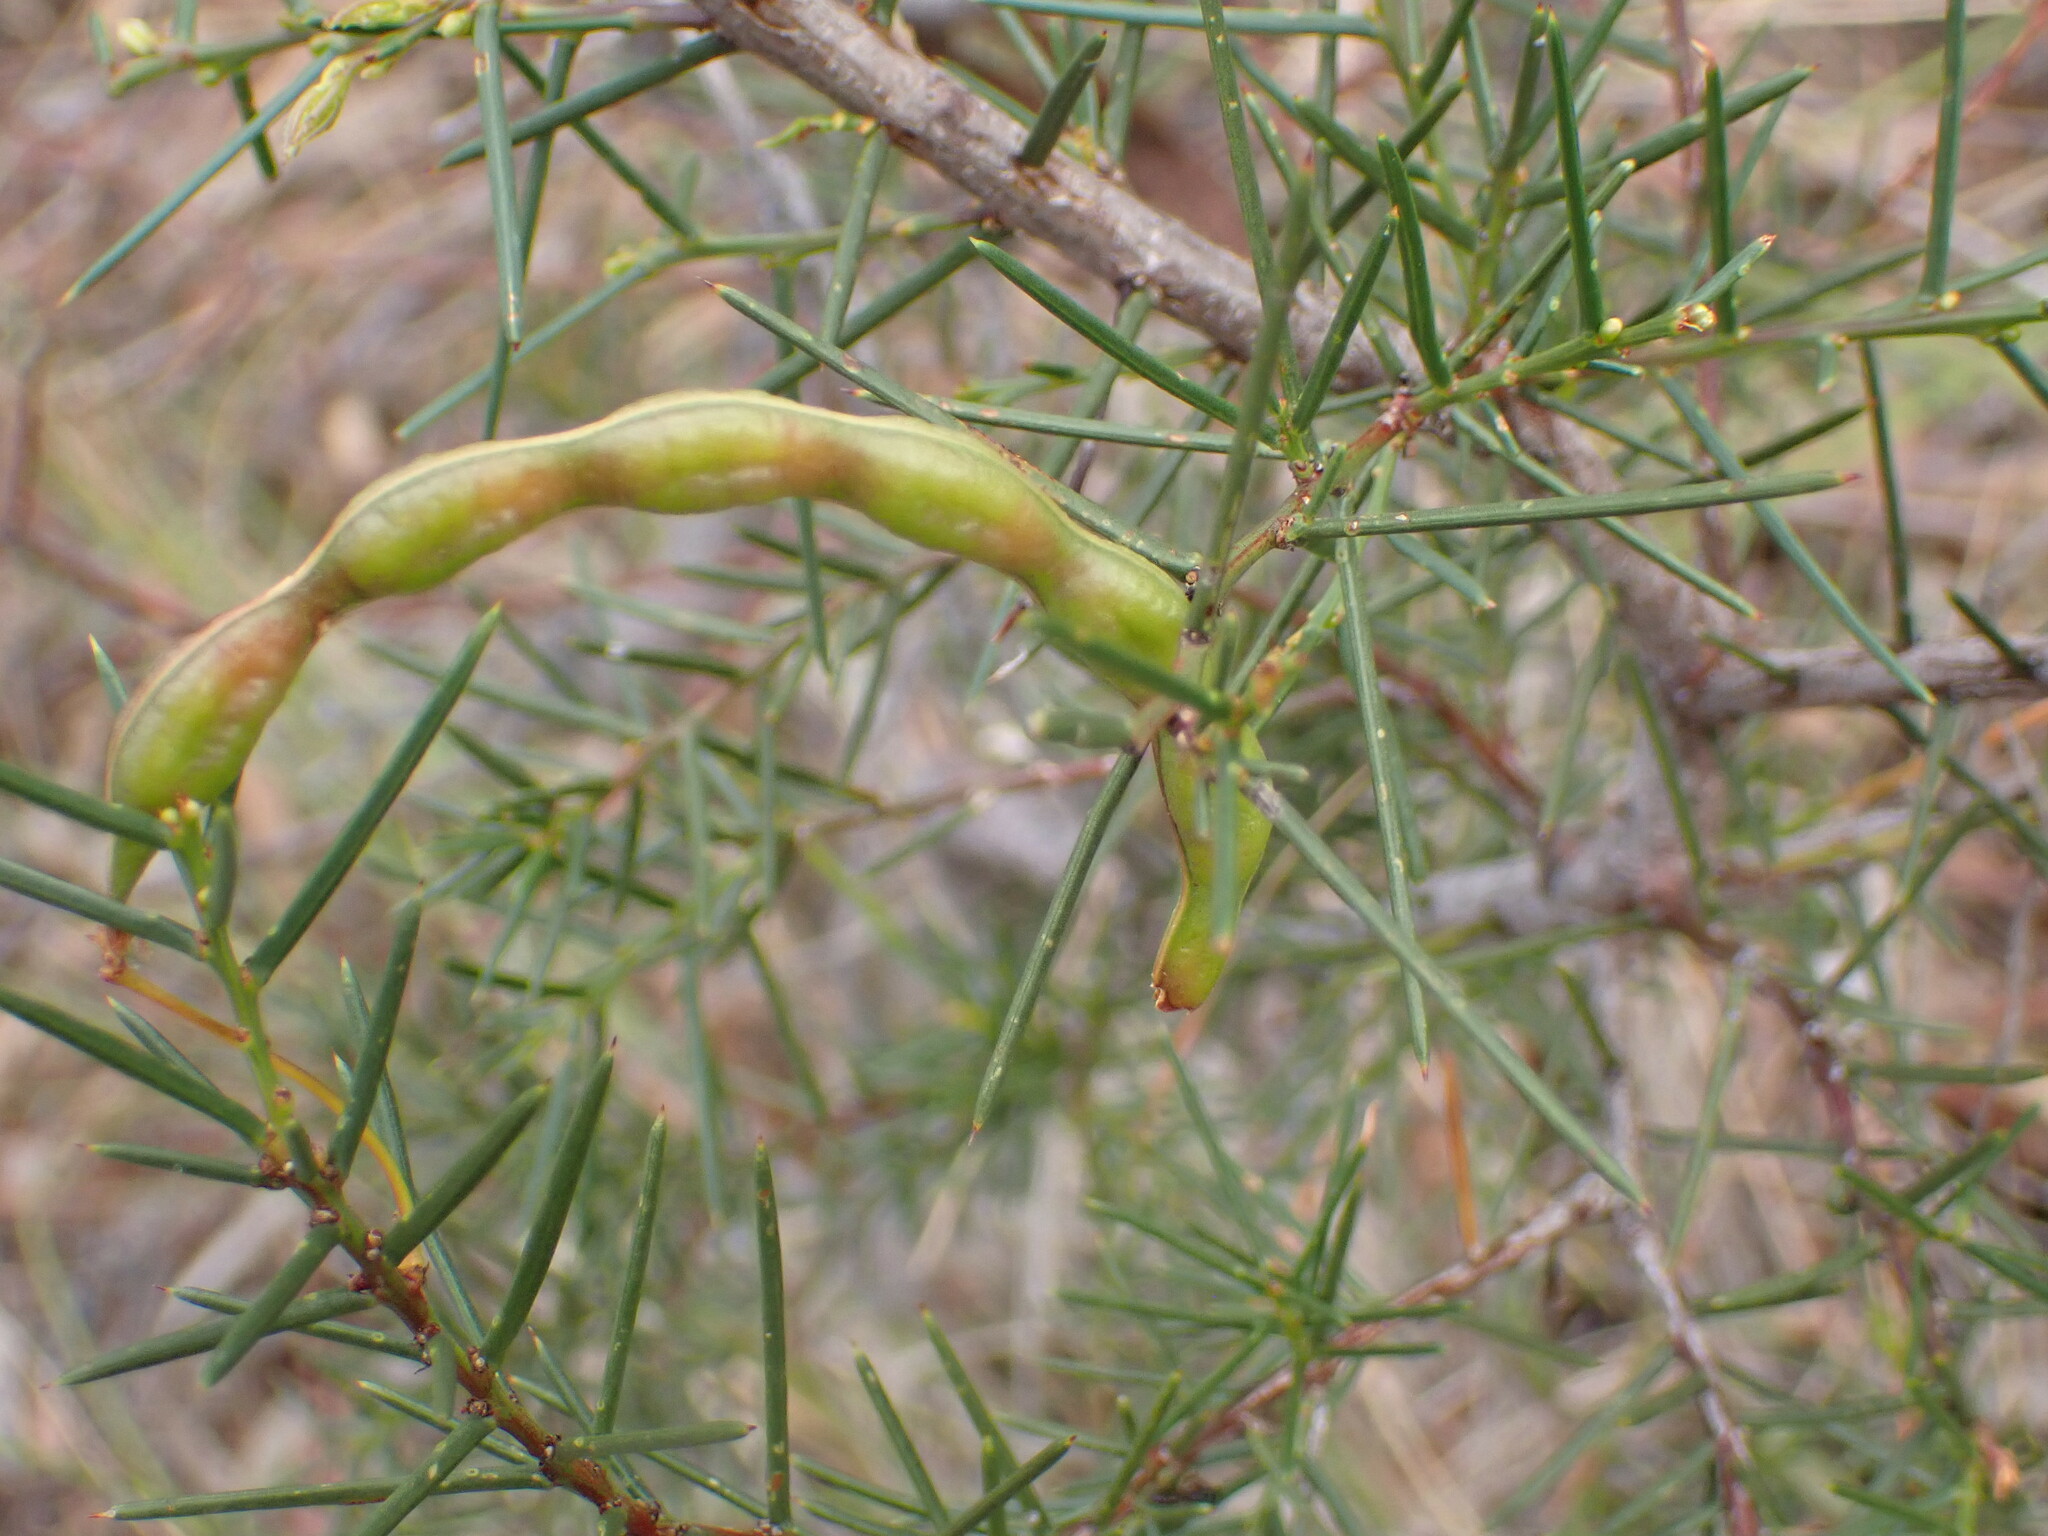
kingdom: Plantae
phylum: Tracheophyta
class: Magnoliopsida
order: Fabales
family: Fabaceae
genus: Acacia
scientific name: Acacia genistifolia
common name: Early wattle
